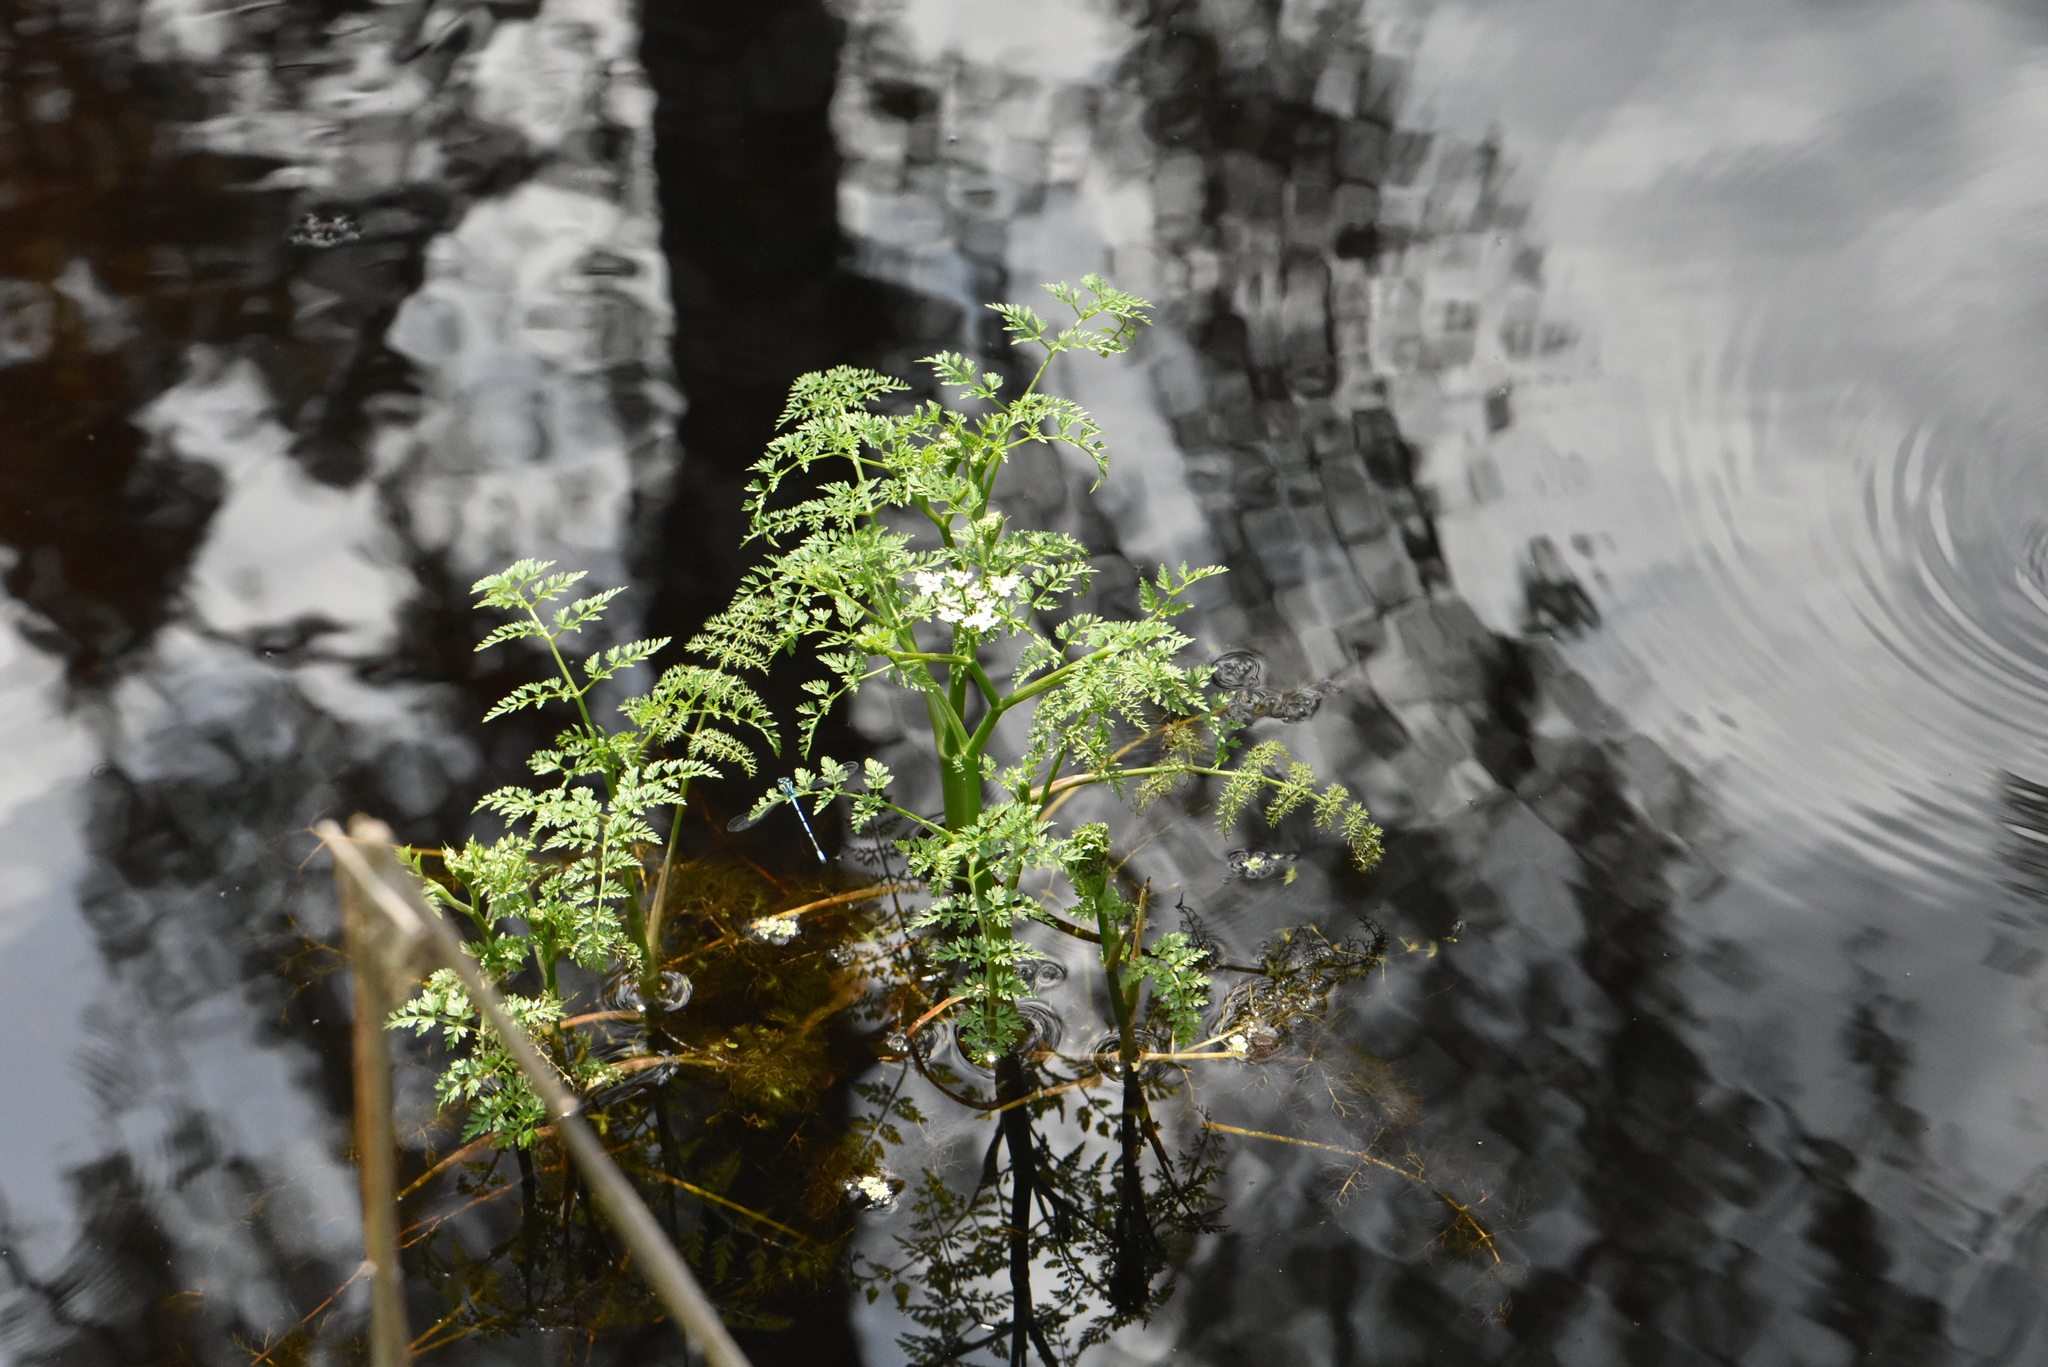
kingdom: Plantae
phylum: Tracheophyta
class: Magnoliopsida
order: Apiales
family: Apiaceae
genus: Oenanthe
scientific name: Oenanthe aquatica
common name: Fine-leaved water-dropwort
